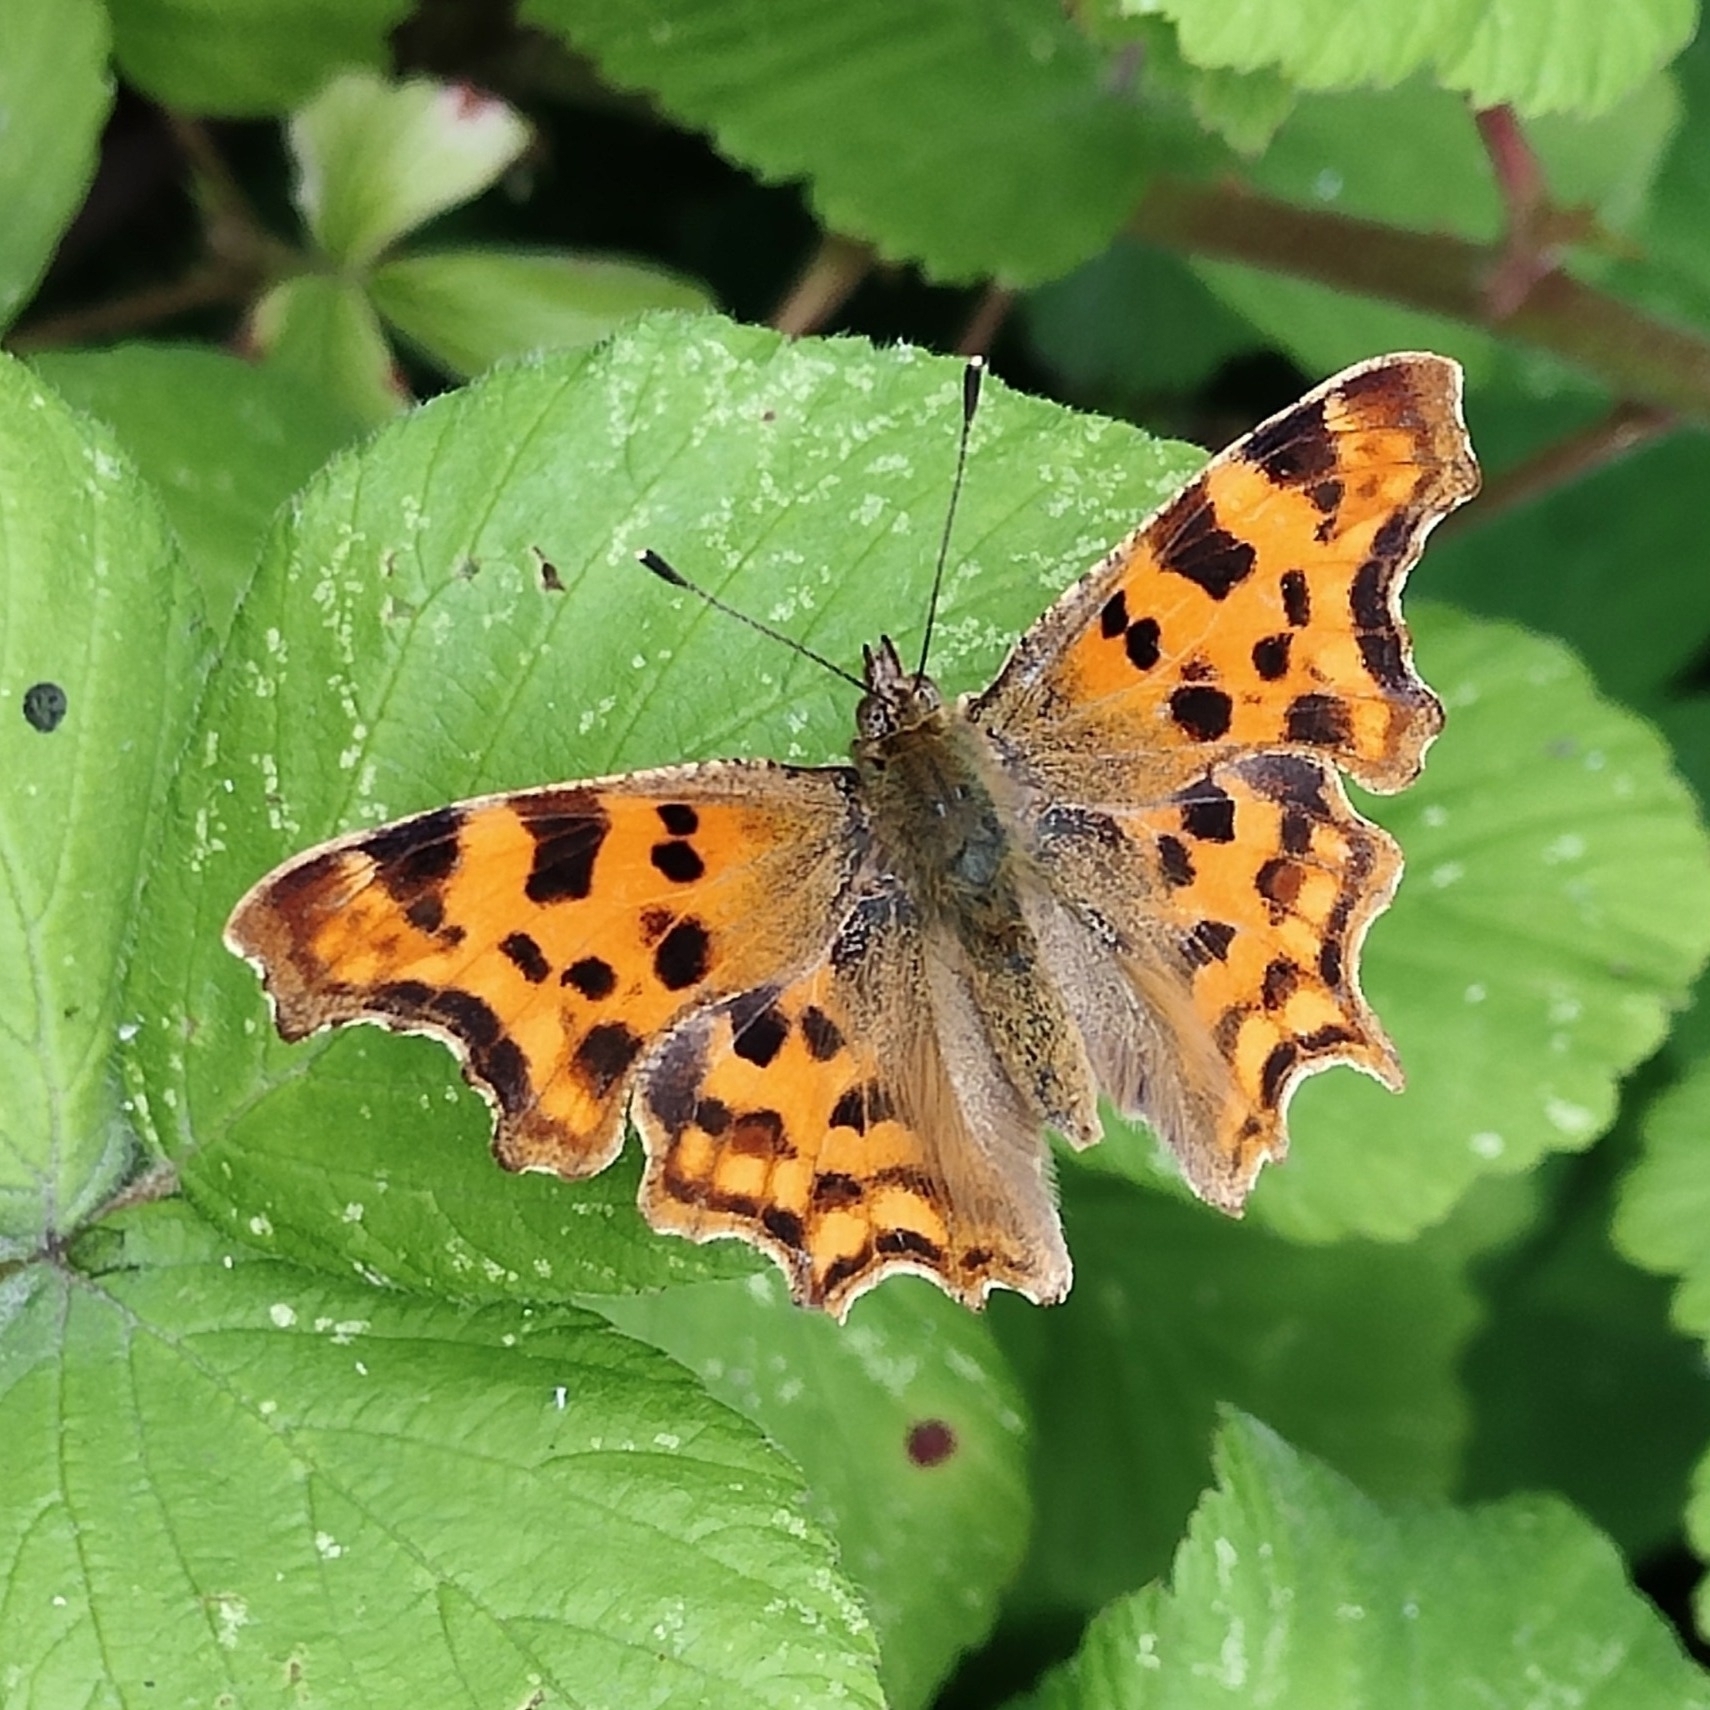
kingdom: Animalia
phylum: Arthropoda
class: Insecta
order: Lepidoptera
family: Nymphalidae
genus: Polygonia
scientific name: Polygonia c-album
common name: Comma
